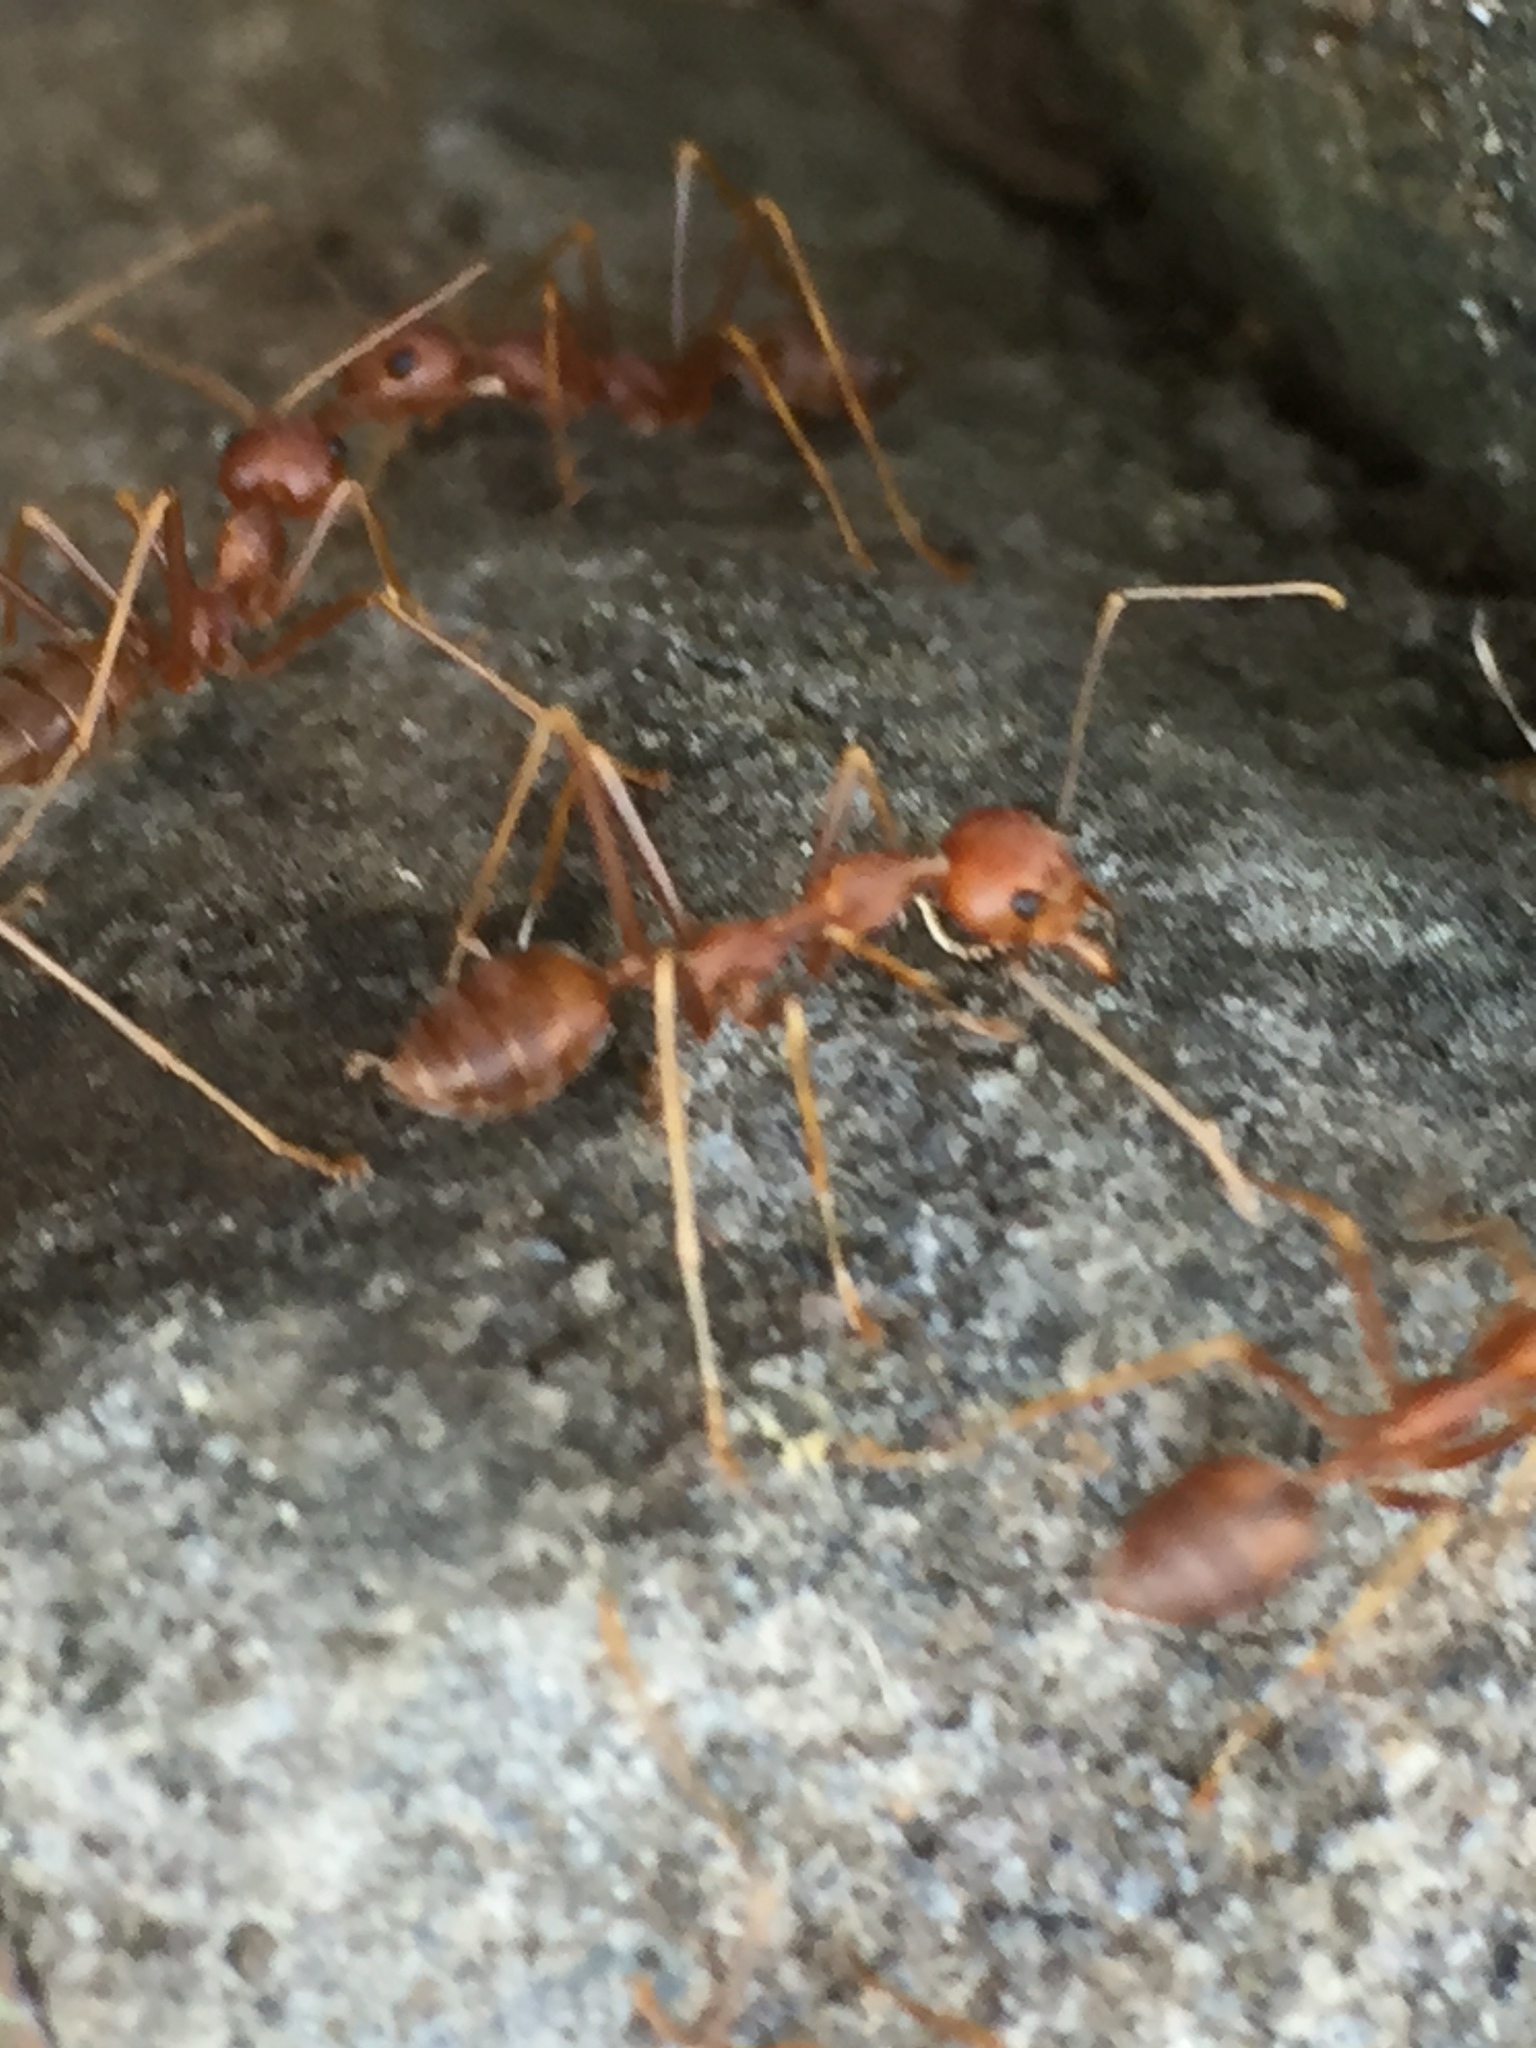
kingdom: Animalia
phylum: Arthropoda
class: Insecta
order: Hymenoptera
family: Formicidae
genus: Oecophylla
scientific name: Oecophylla smaragdina
